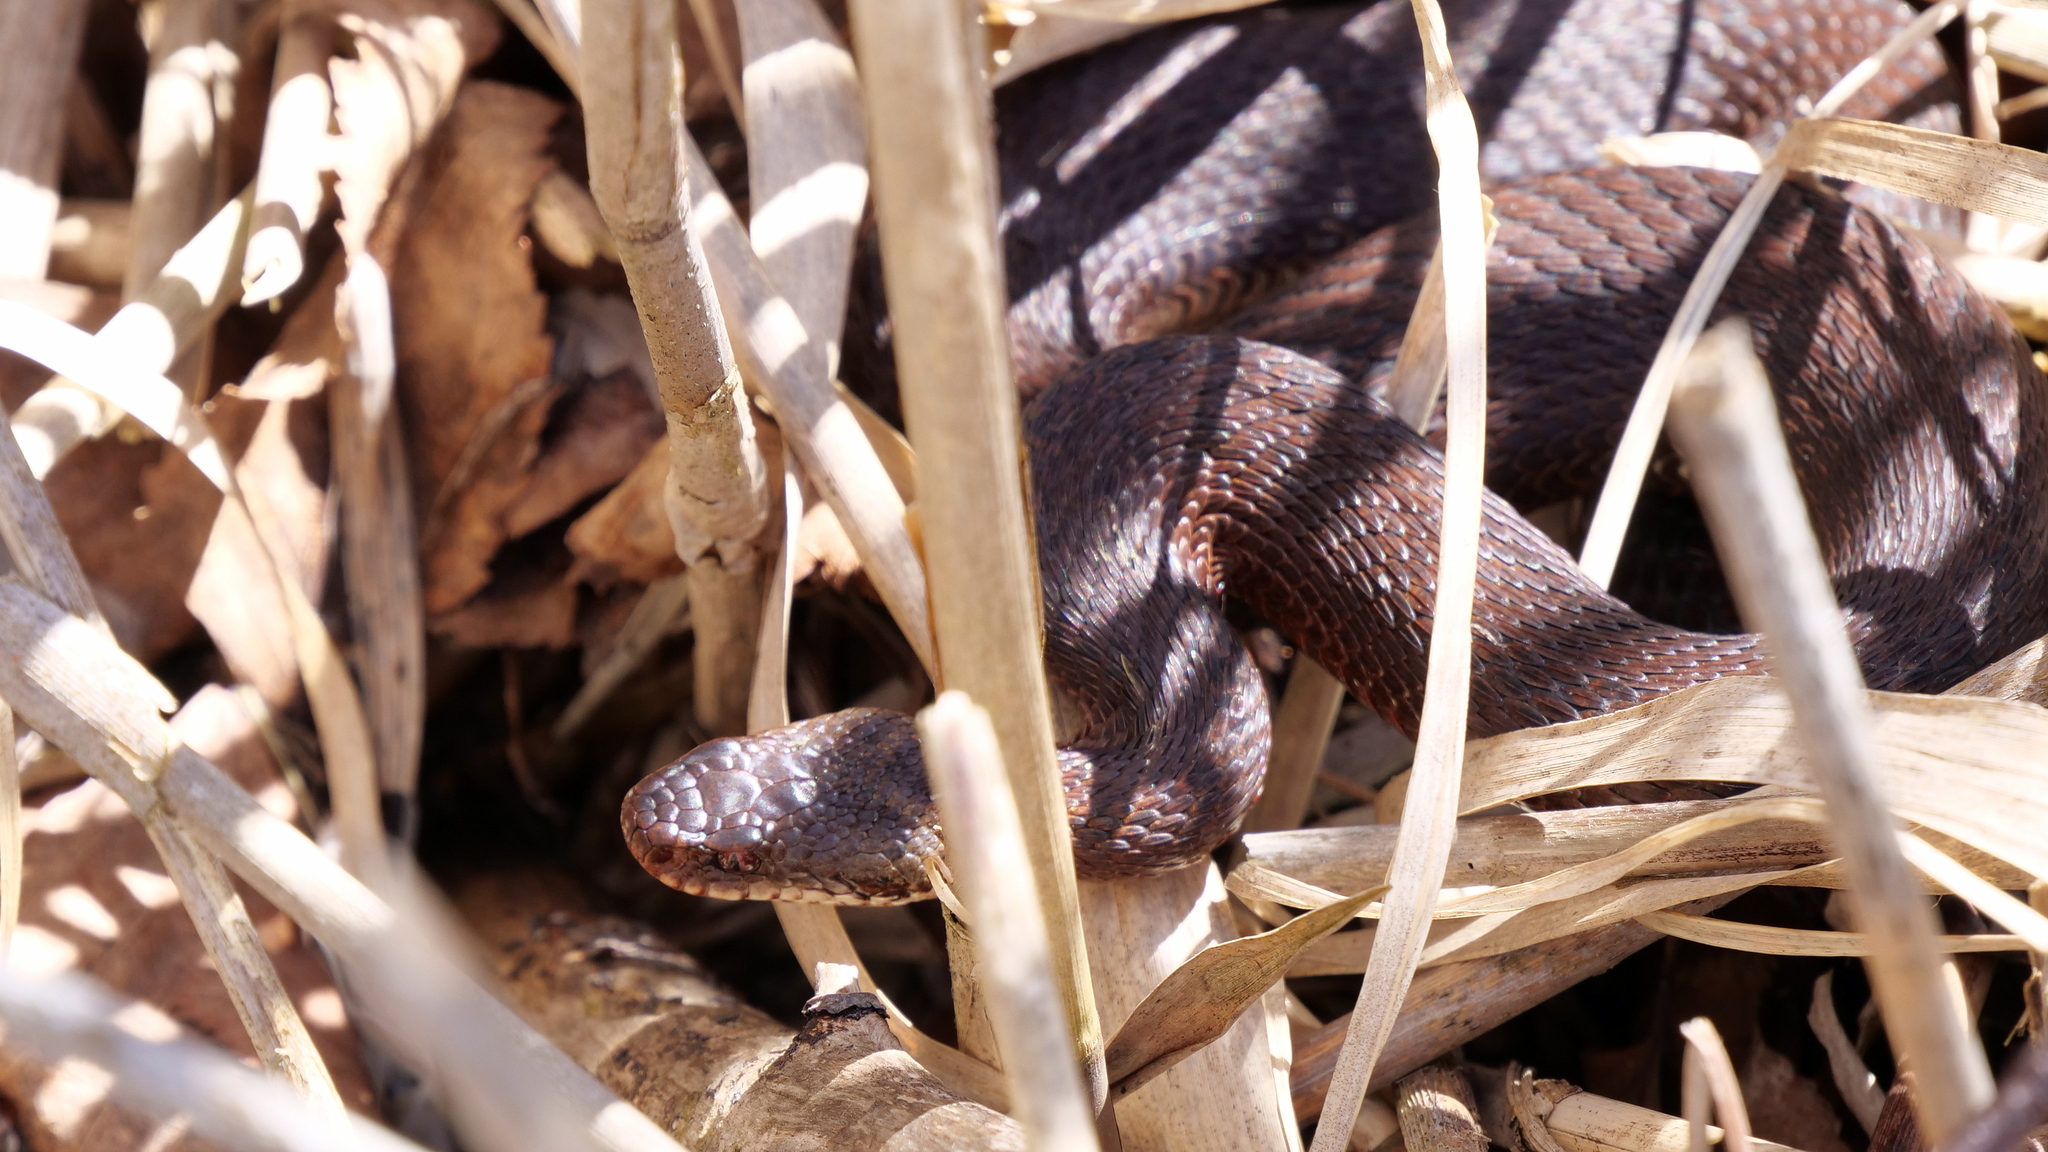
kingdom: Animalia
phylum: Chordata
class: Squamata
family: Viperidae
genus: Vipera
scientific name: Vipera berus
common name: Adder
